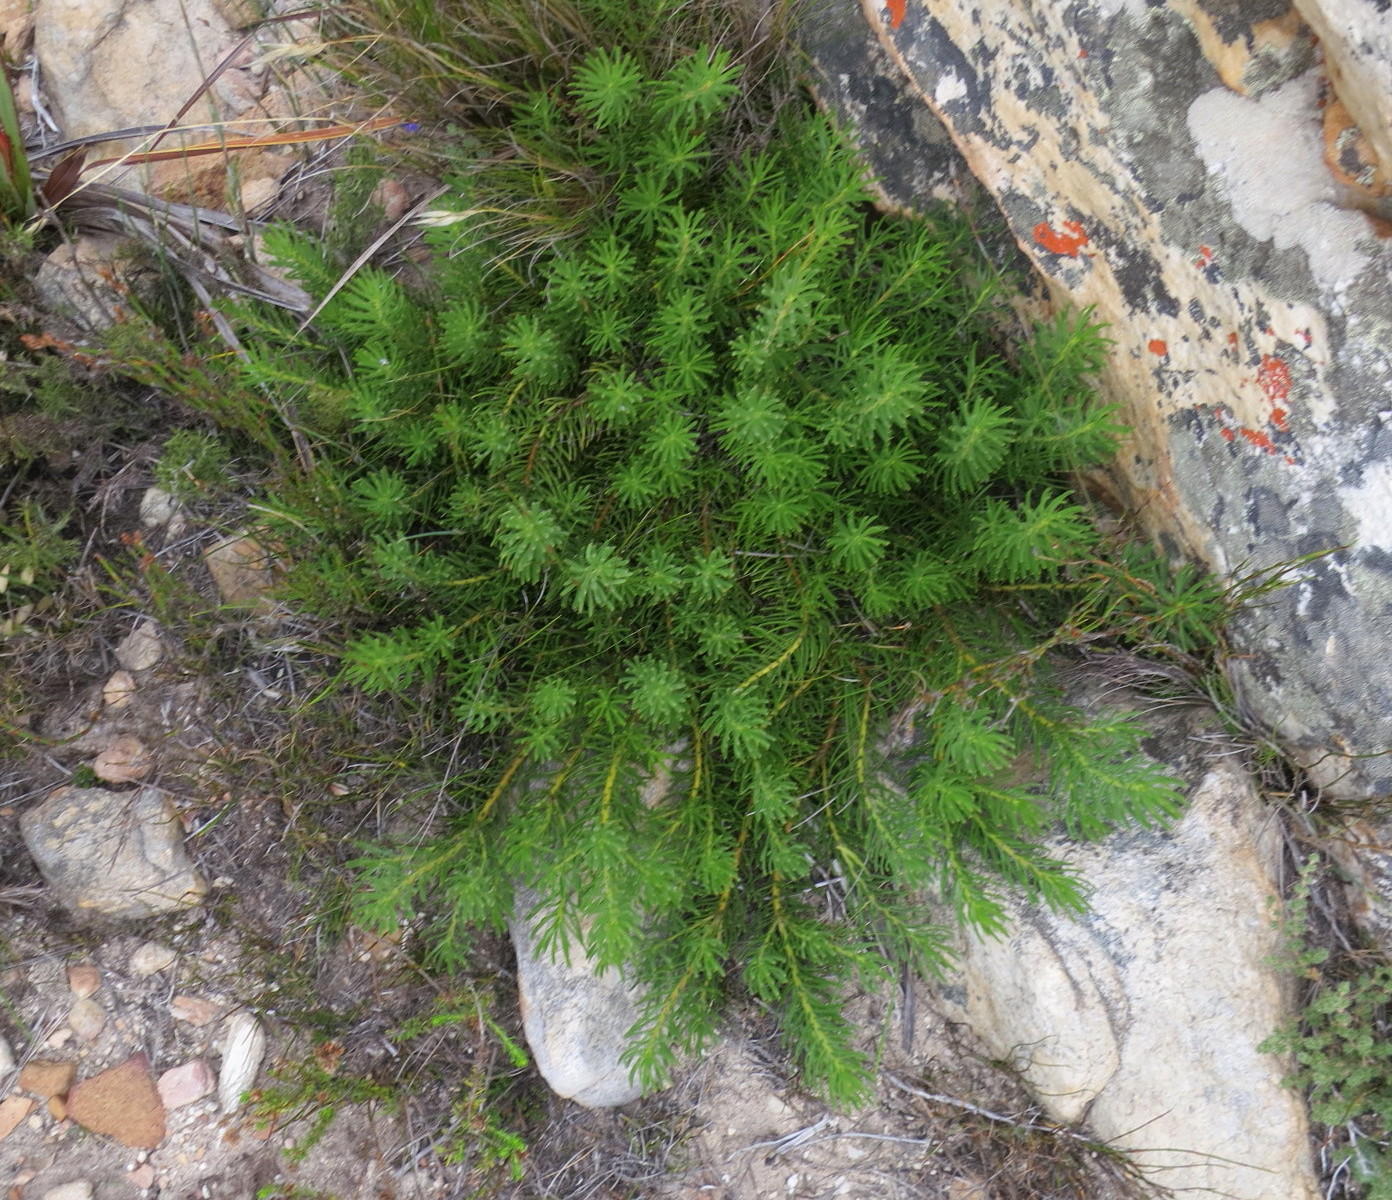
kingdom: Plantae
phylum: Tracheophyta
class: Magnoliopsida
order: Proteales
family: Proteaceae
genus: Leucadendron
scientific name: Leucadendron dregei
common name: Summit conebush
